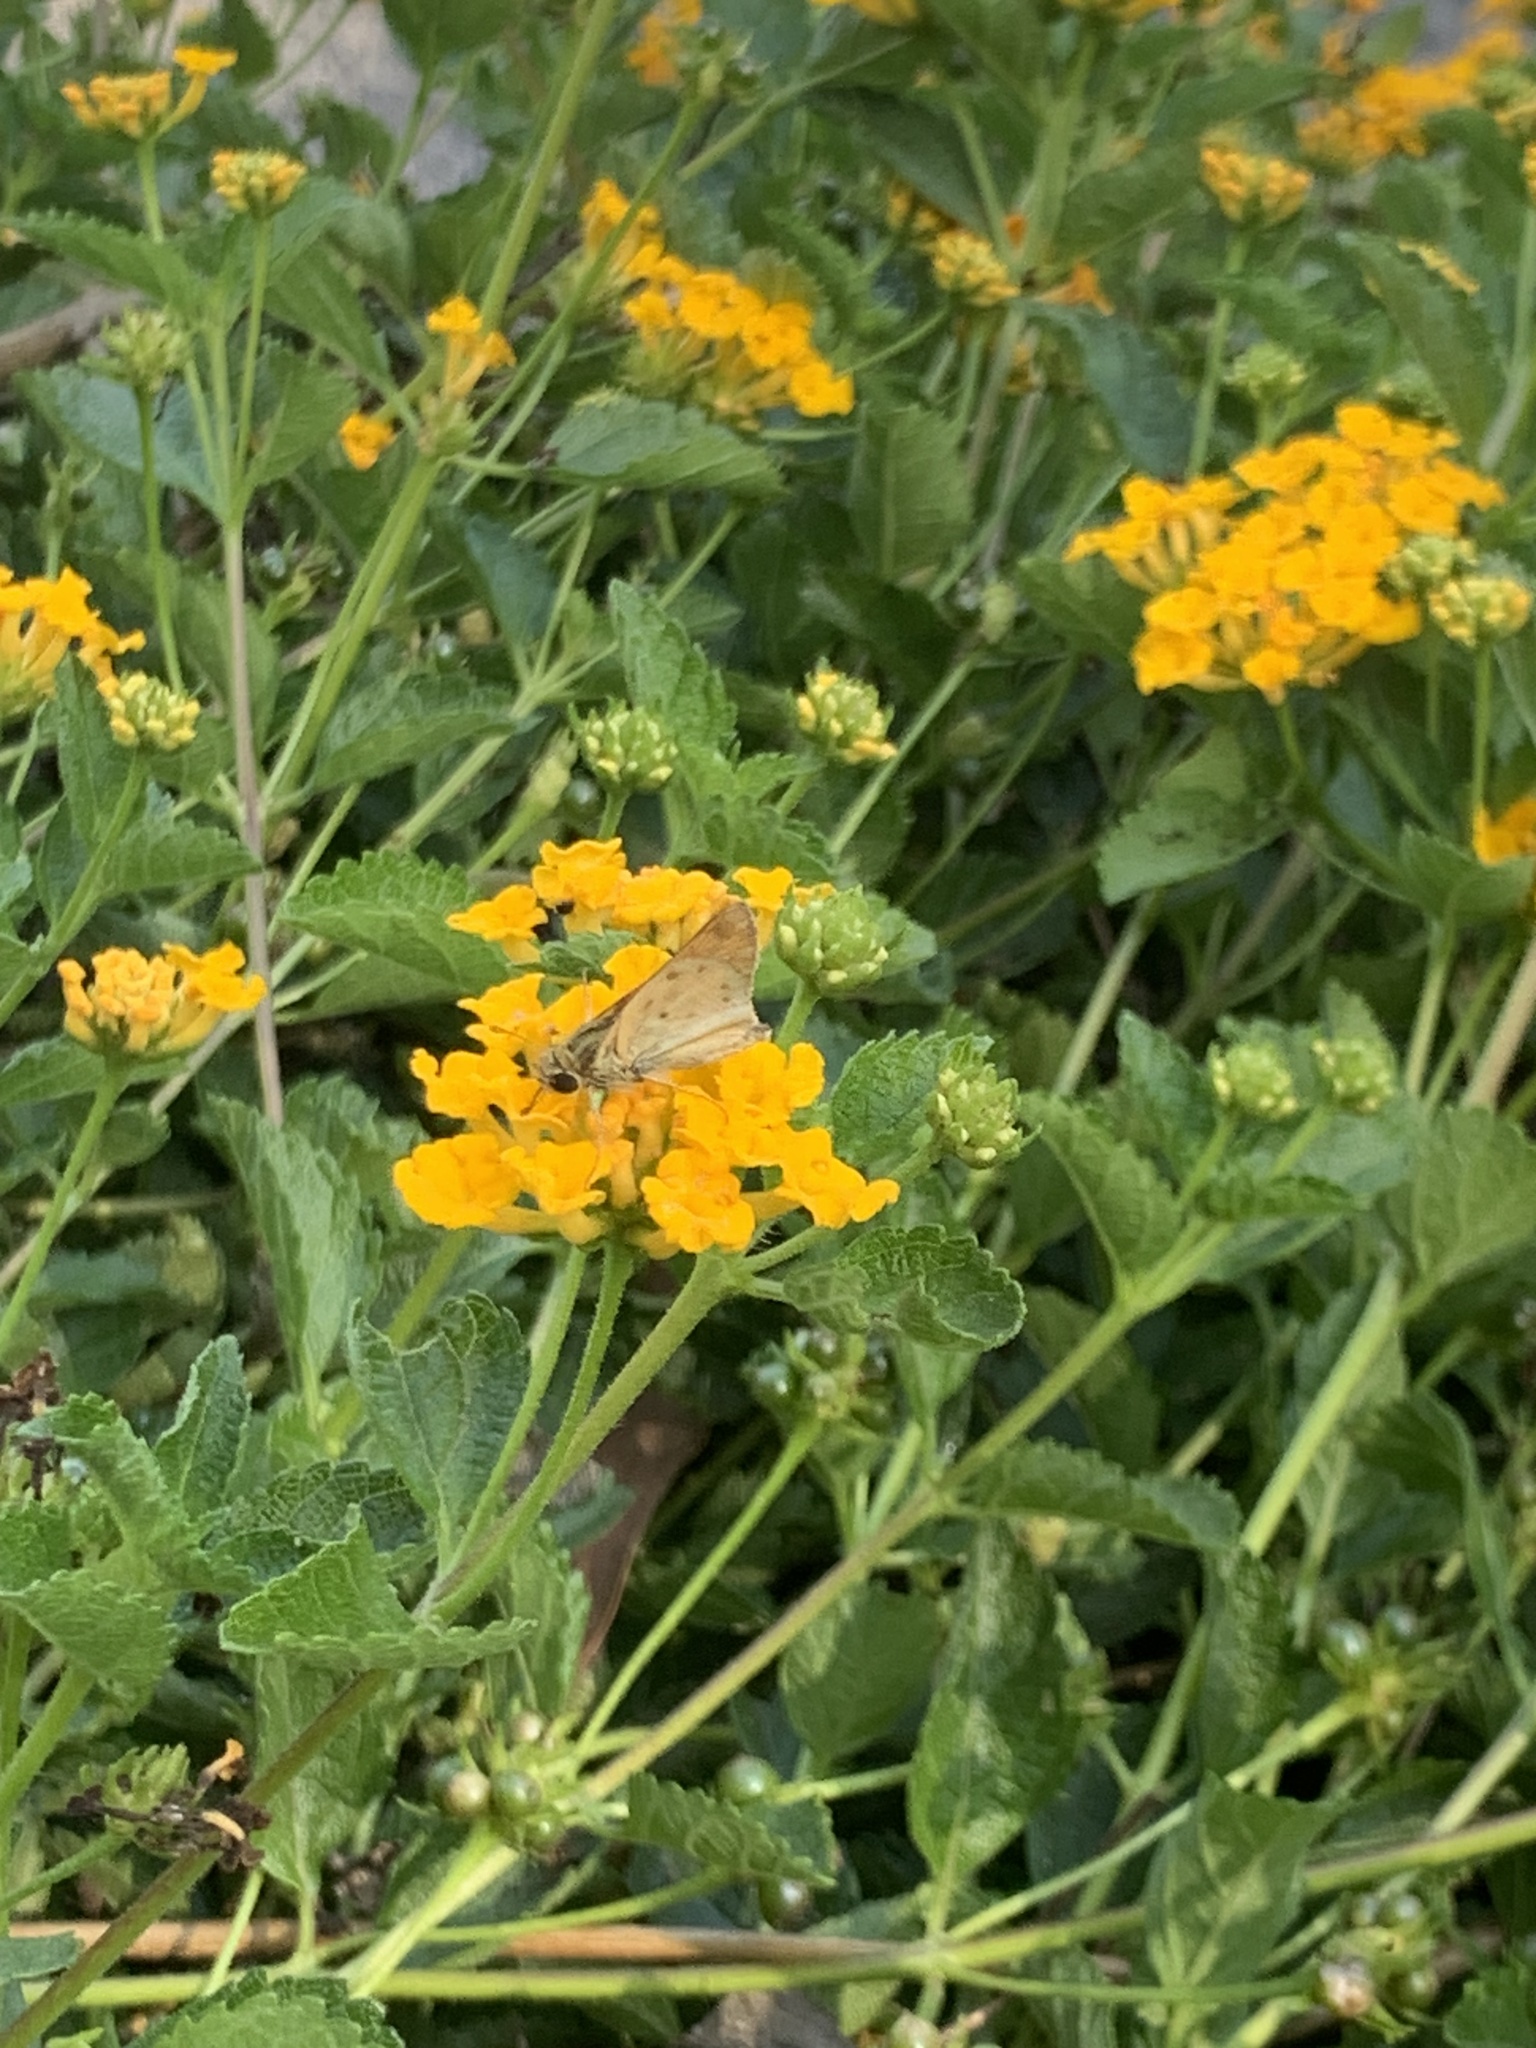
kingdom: Animalia
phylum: Arthropoda
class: Insecta
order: Lepidoptera
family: Hesperiidae
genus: Hylephila
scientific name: Hylephila phyleus
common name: Fiery skipper
